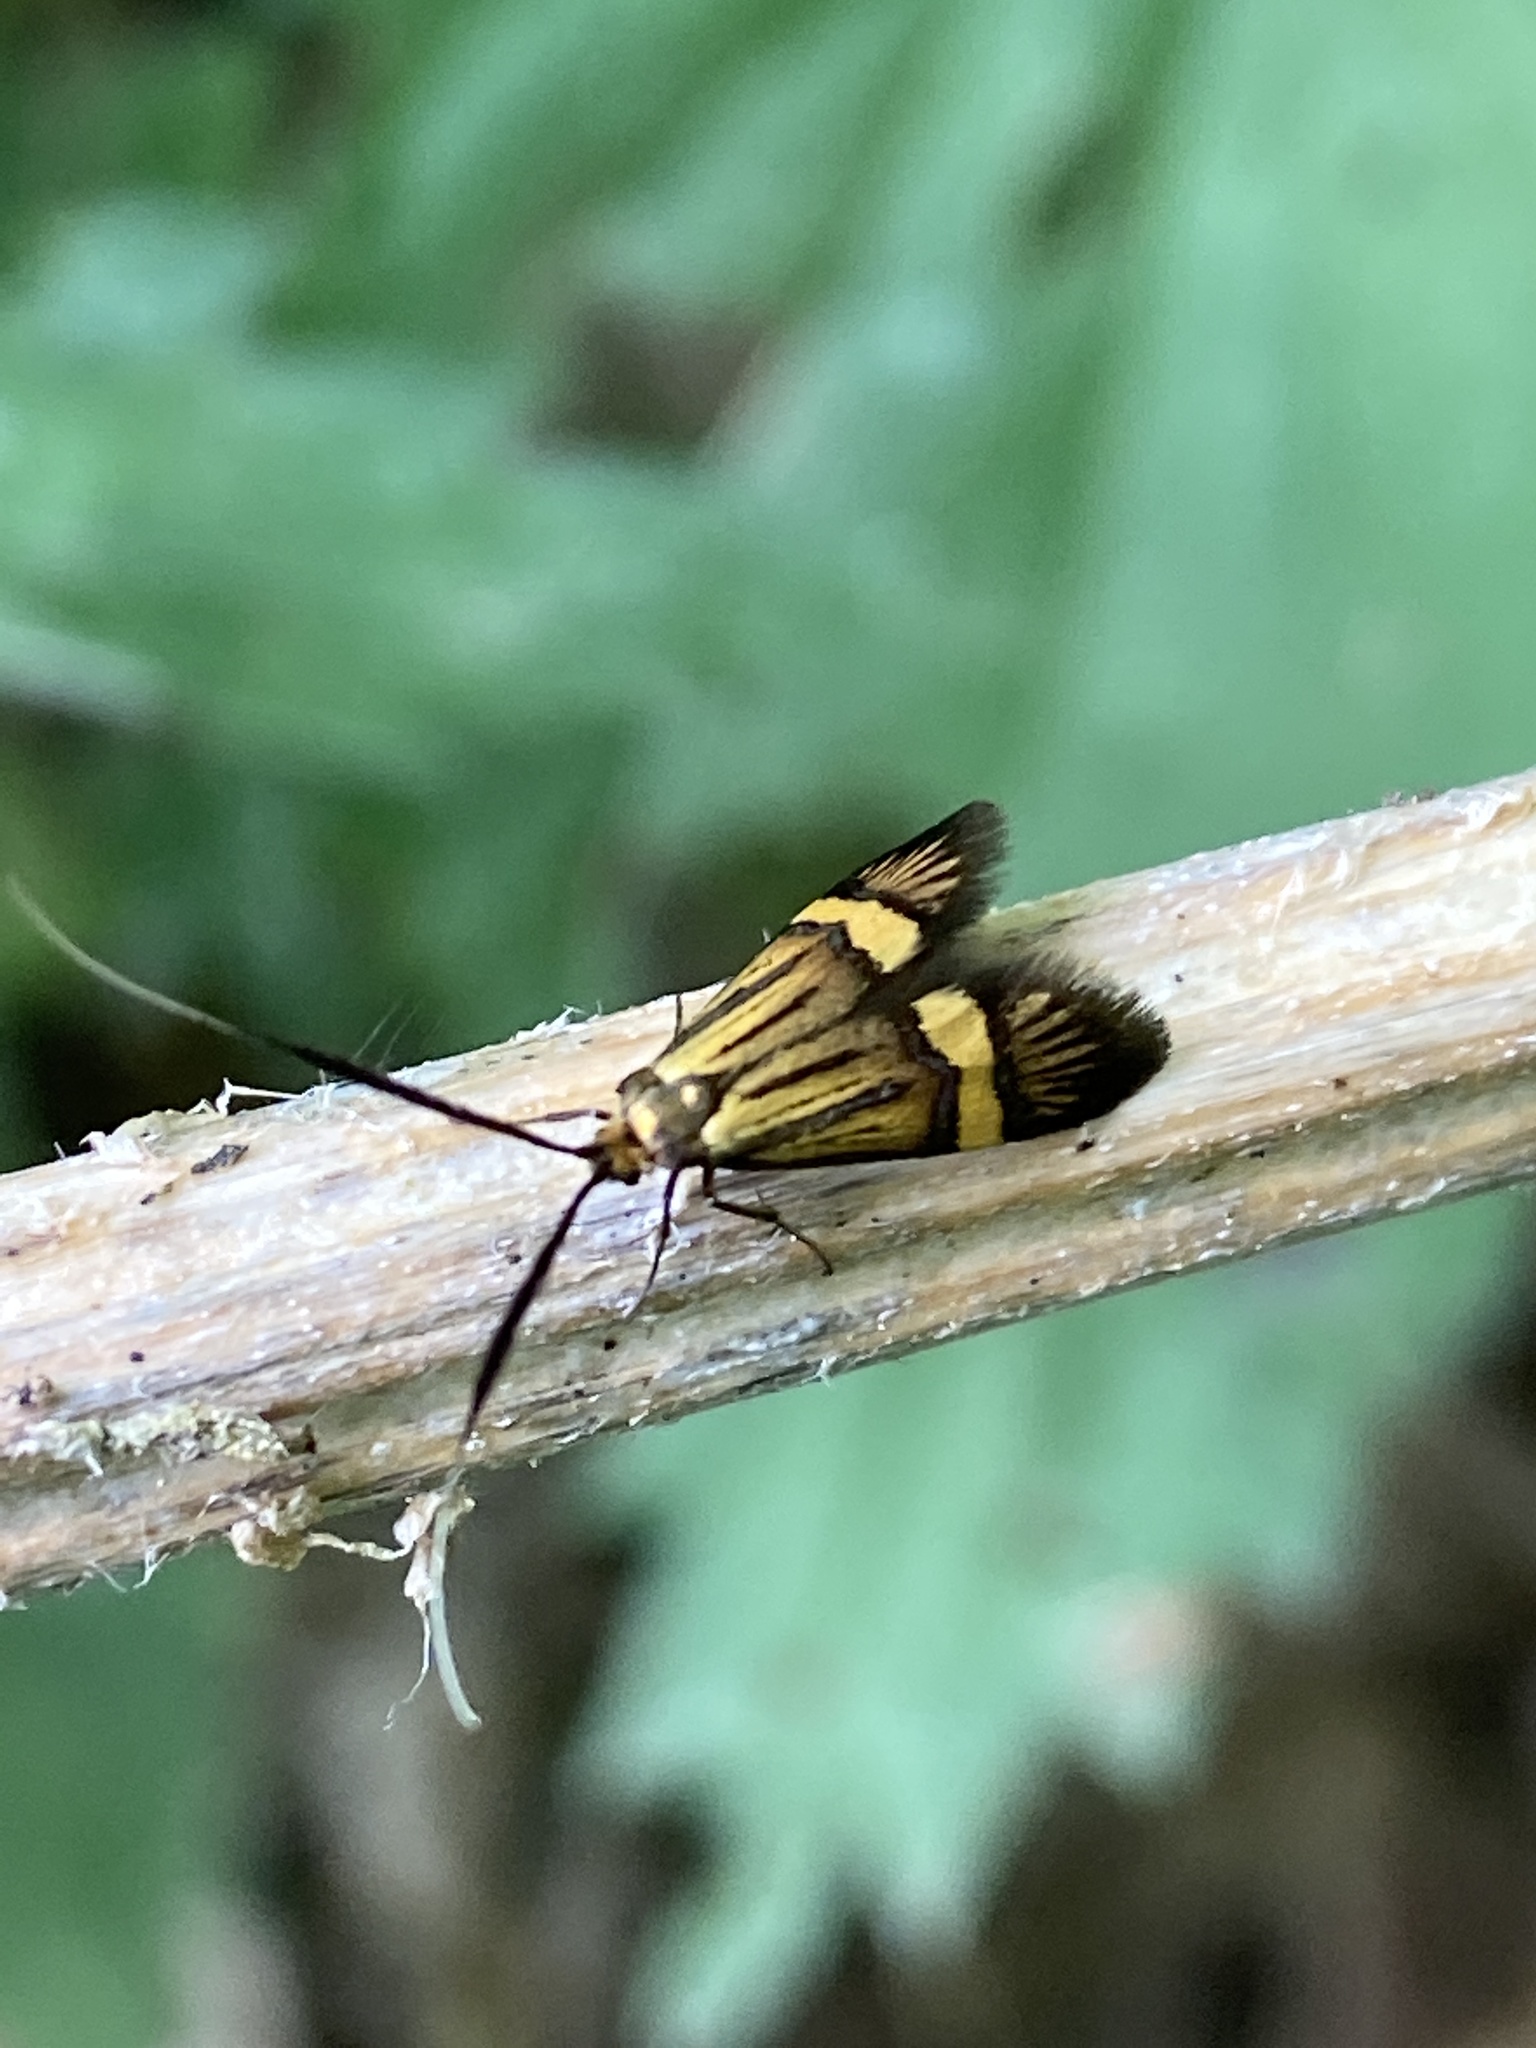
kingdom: Animalia
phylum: Arthropoda
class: Insecta
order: Lepidoptera
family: Adelidae
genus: Nemophora
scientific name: Nemophora degeerella
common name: Yellow-barred long-horn
